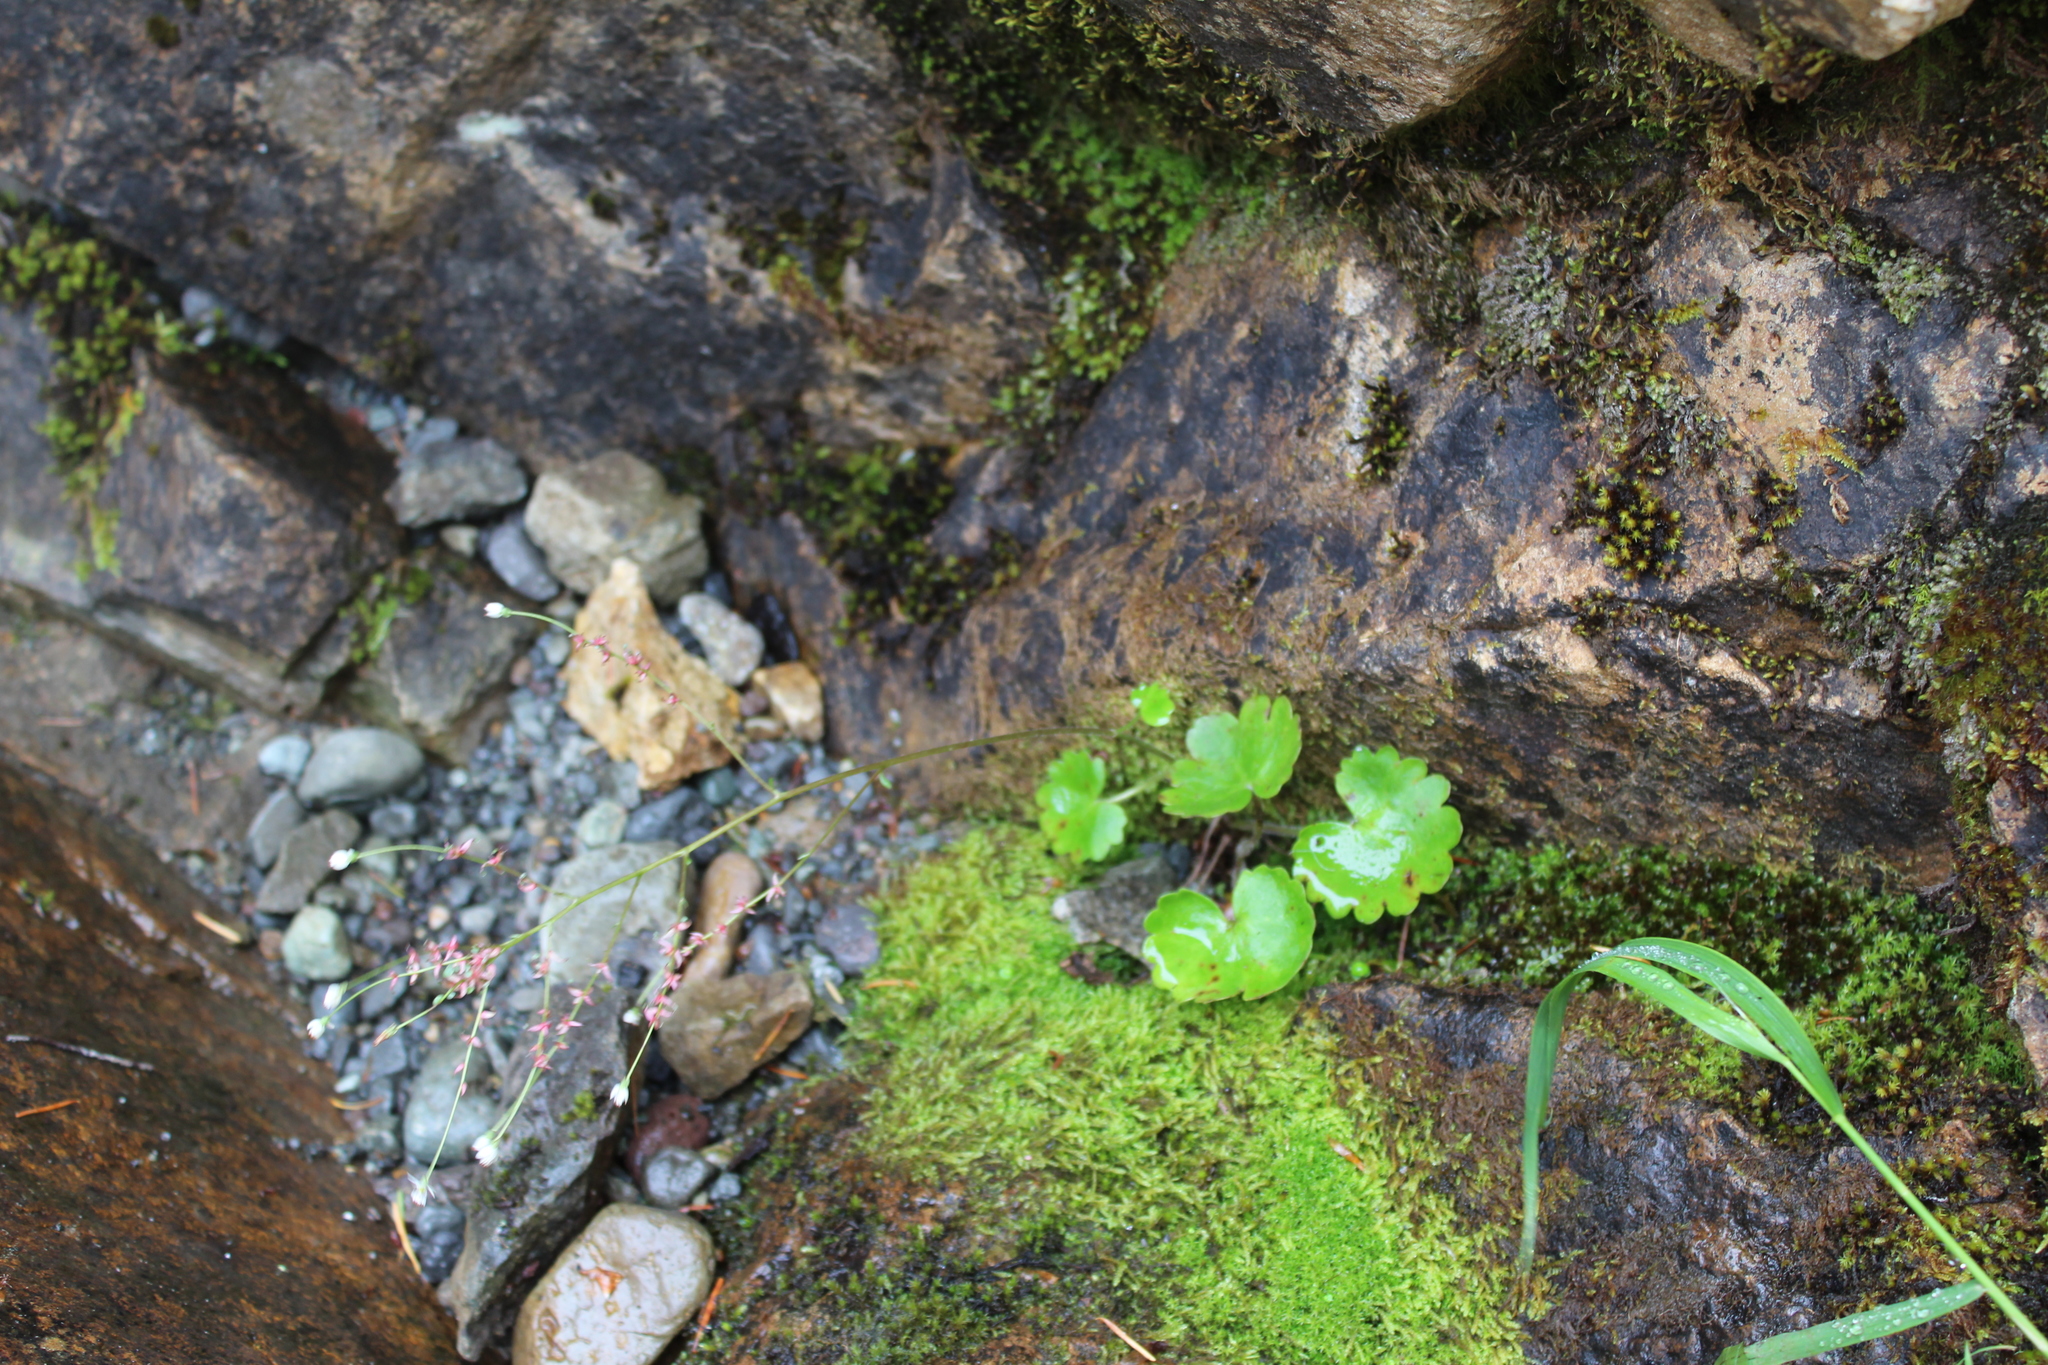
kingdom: Plantae
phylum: Tracheophyta
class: Magnoliopsida
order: Saxifragales
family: Saxifragaceae
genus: Micranthes
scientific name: Micranthes mertensiana
